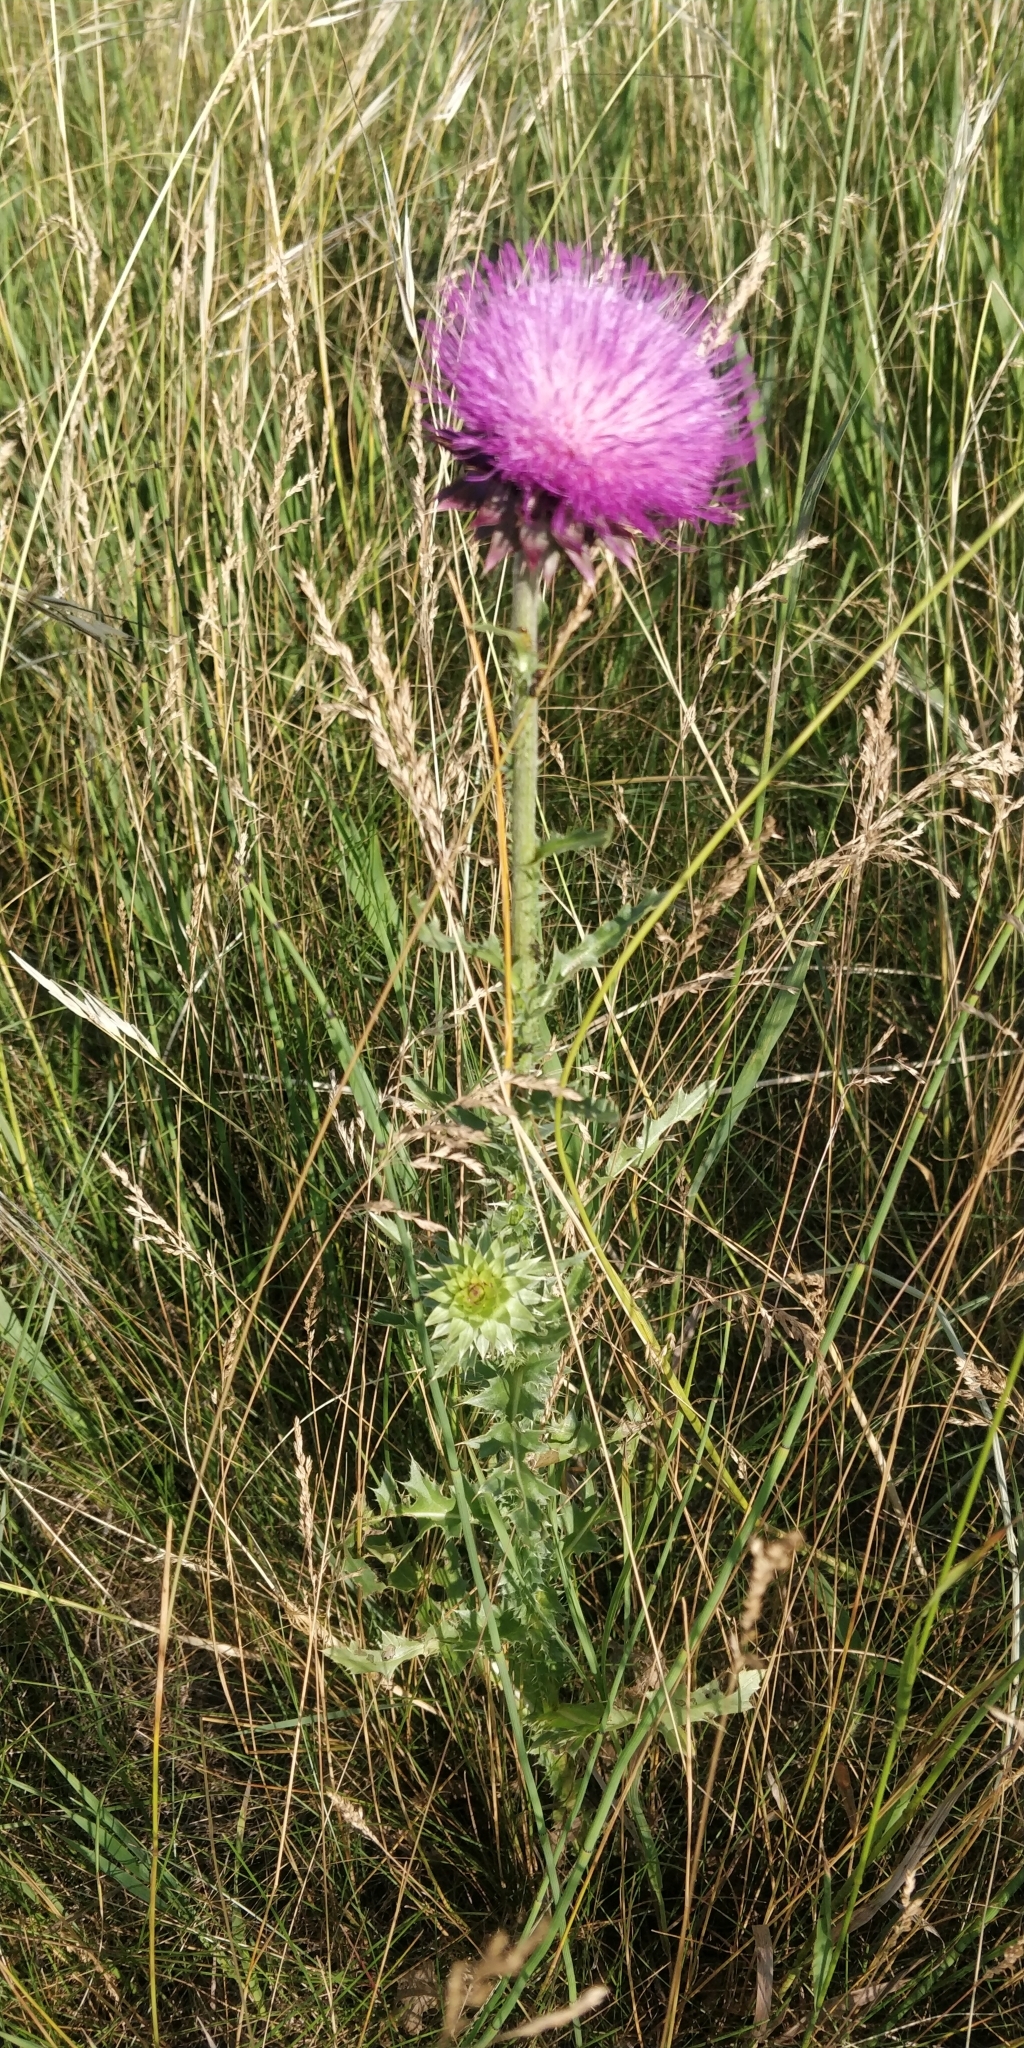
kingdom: Plantae
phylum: Tracheophyta
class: Magnoliopsida
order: Asterales
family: Asteraceae
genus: Carduus
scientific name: Carduus nutans
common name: Musk thistle
